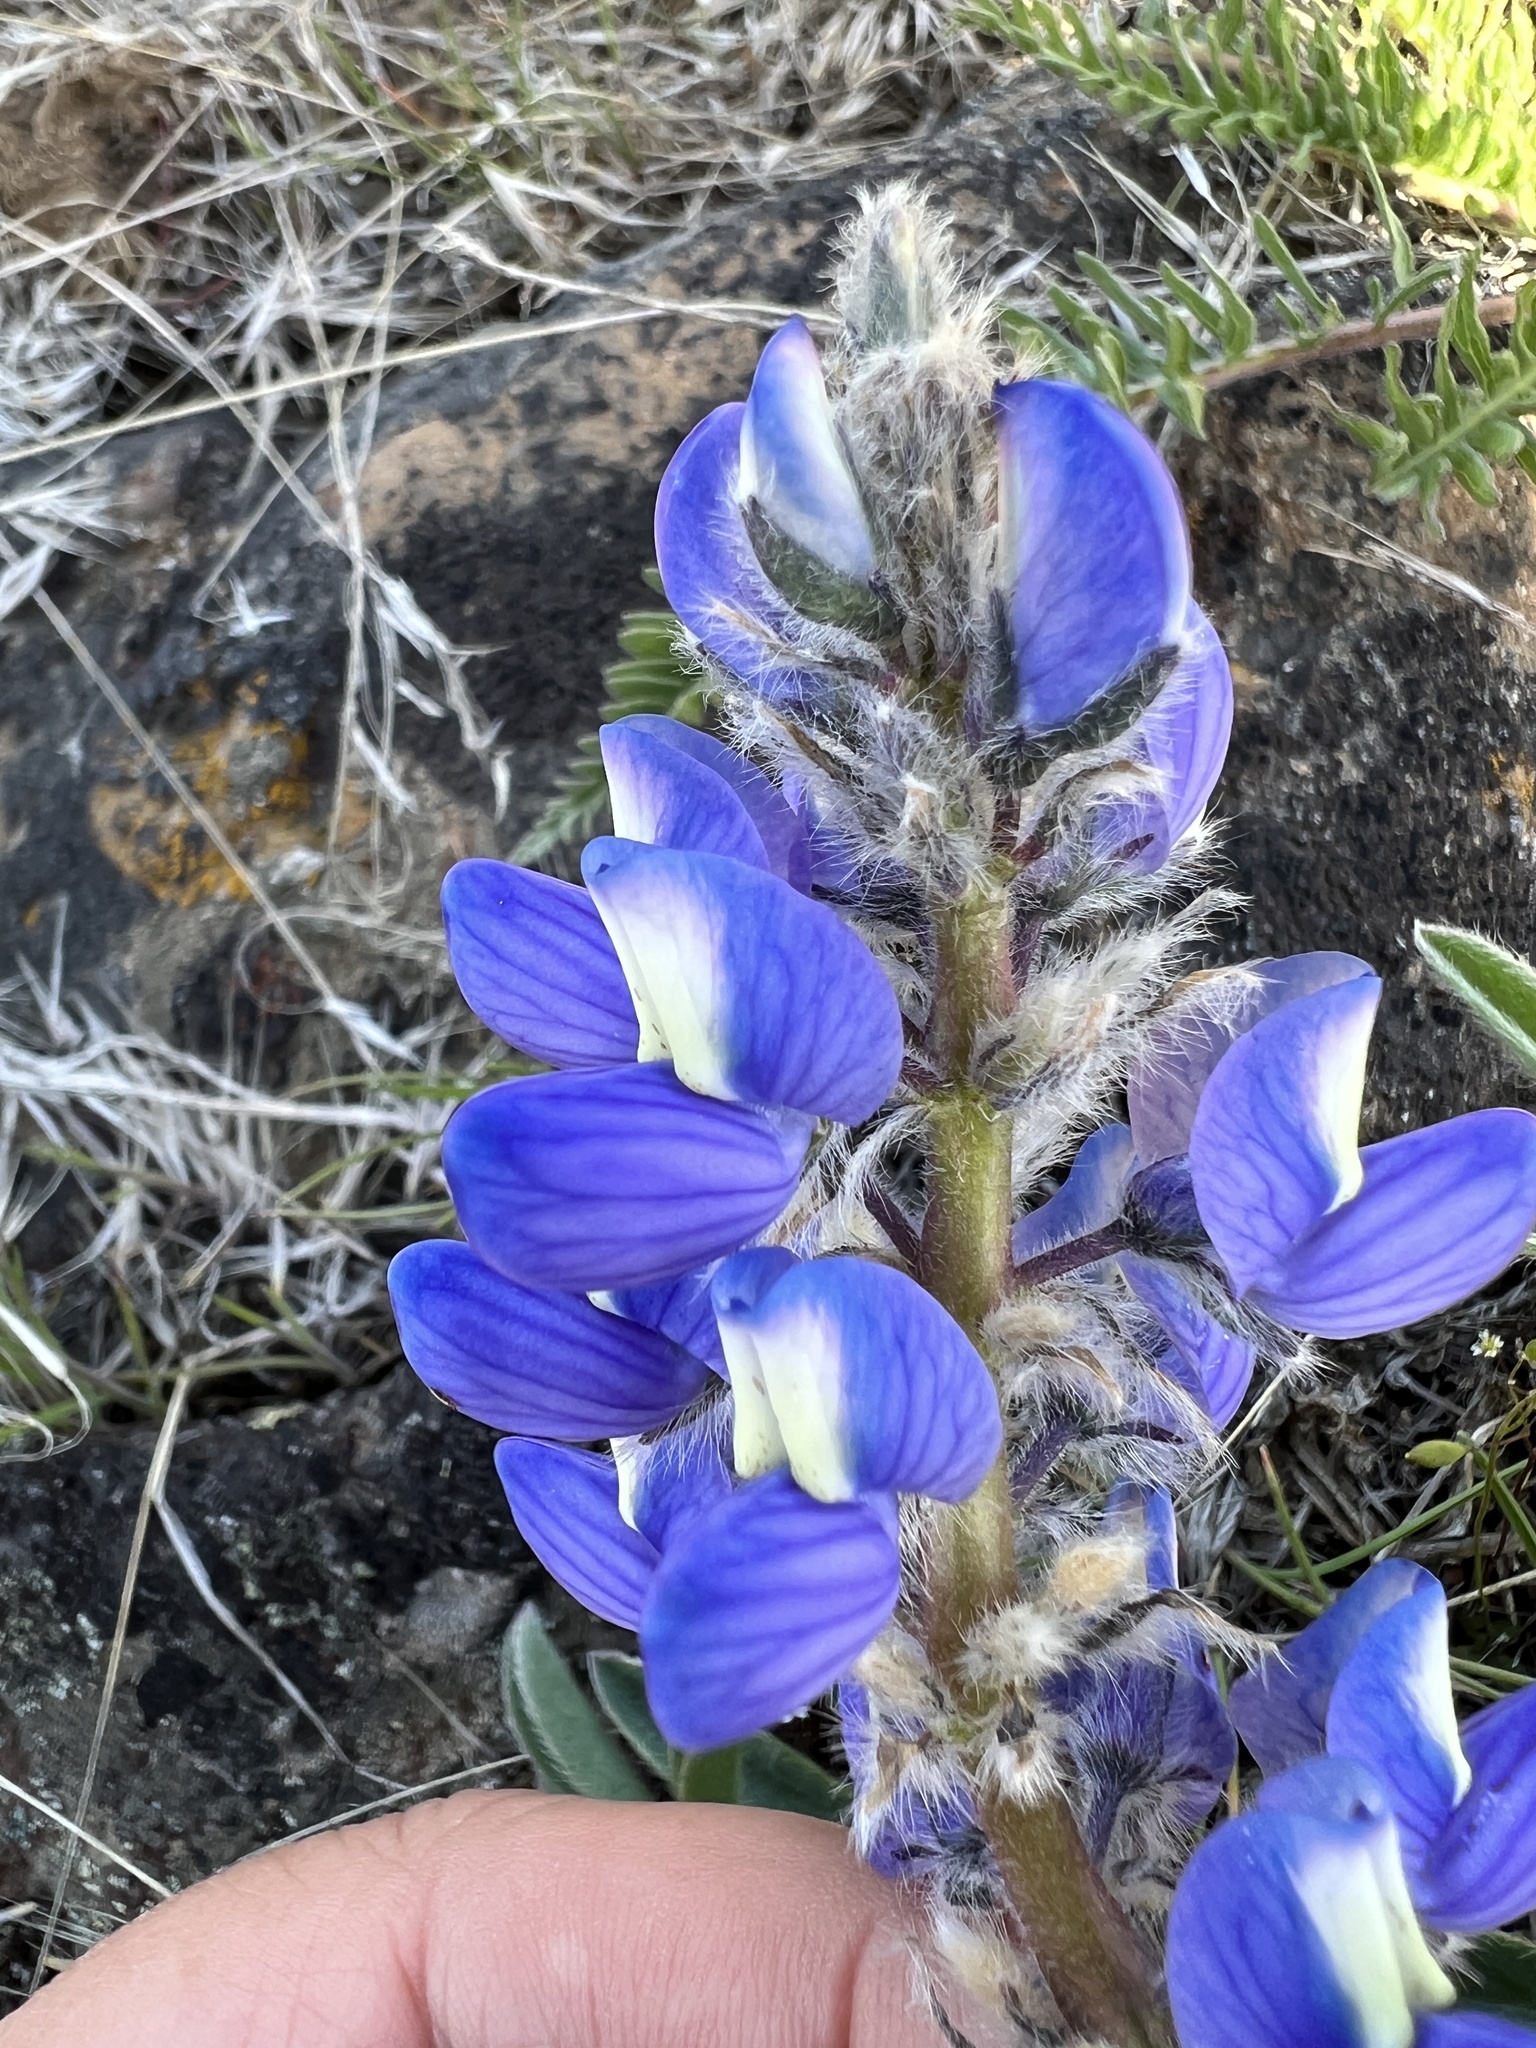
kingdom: Plantae
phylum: Tracheophyta
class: Magnoliopsida
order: Fabales
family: Fabaceae
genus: Lupinus
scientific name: Lupinus saxosus
